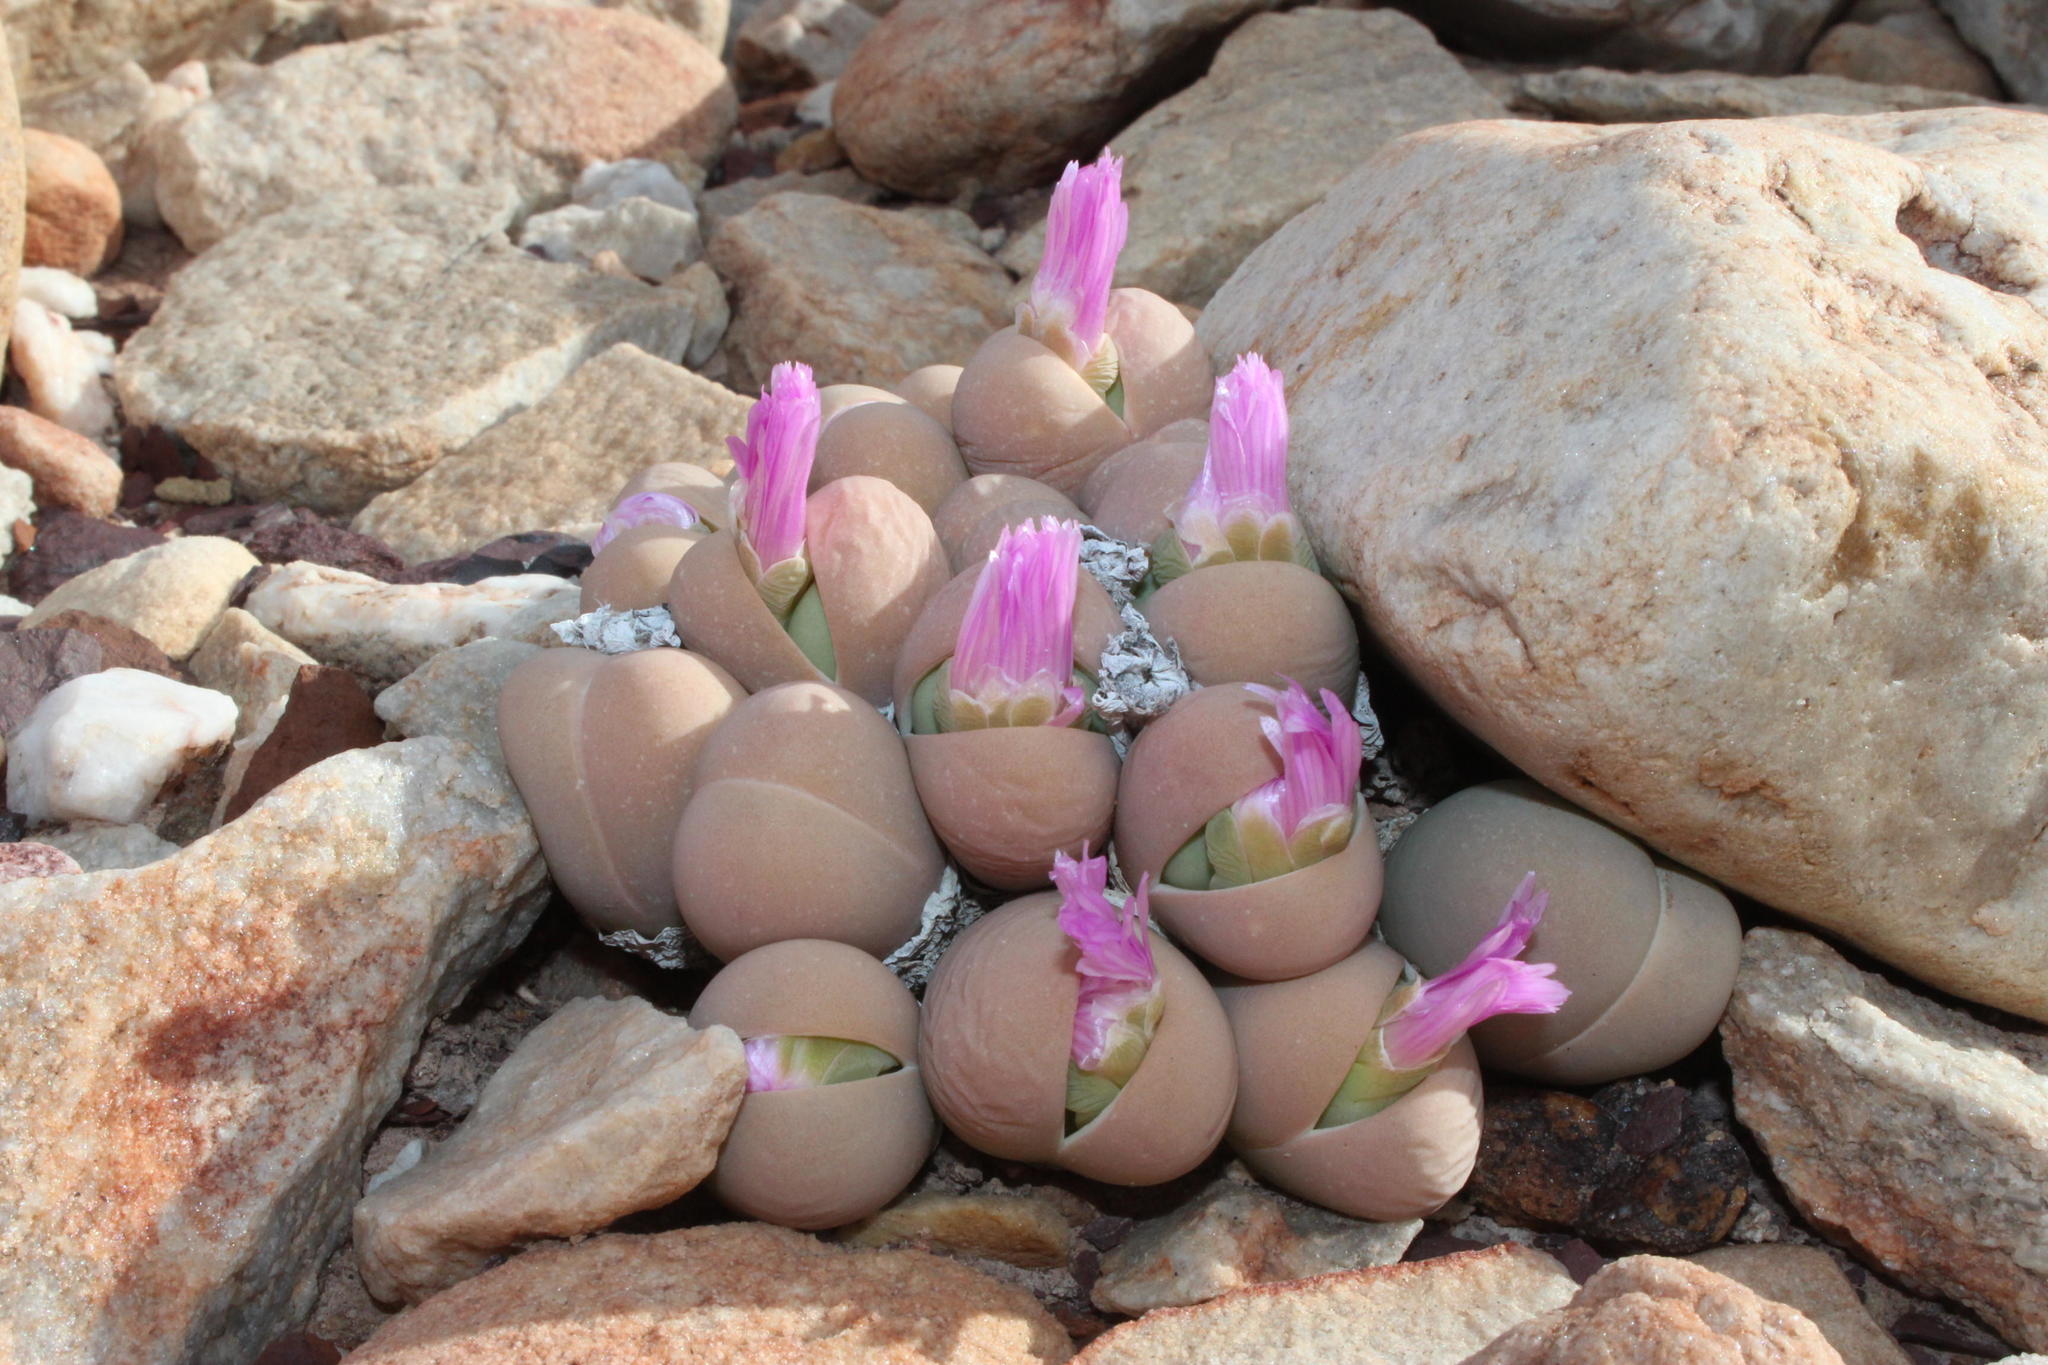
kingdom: Plantae
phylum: Tracheophyta
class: Magnoliopsida
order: Caryophyllales
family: Aizoaceae
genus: Gibbaeum
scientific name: Gibbaeum heathii
